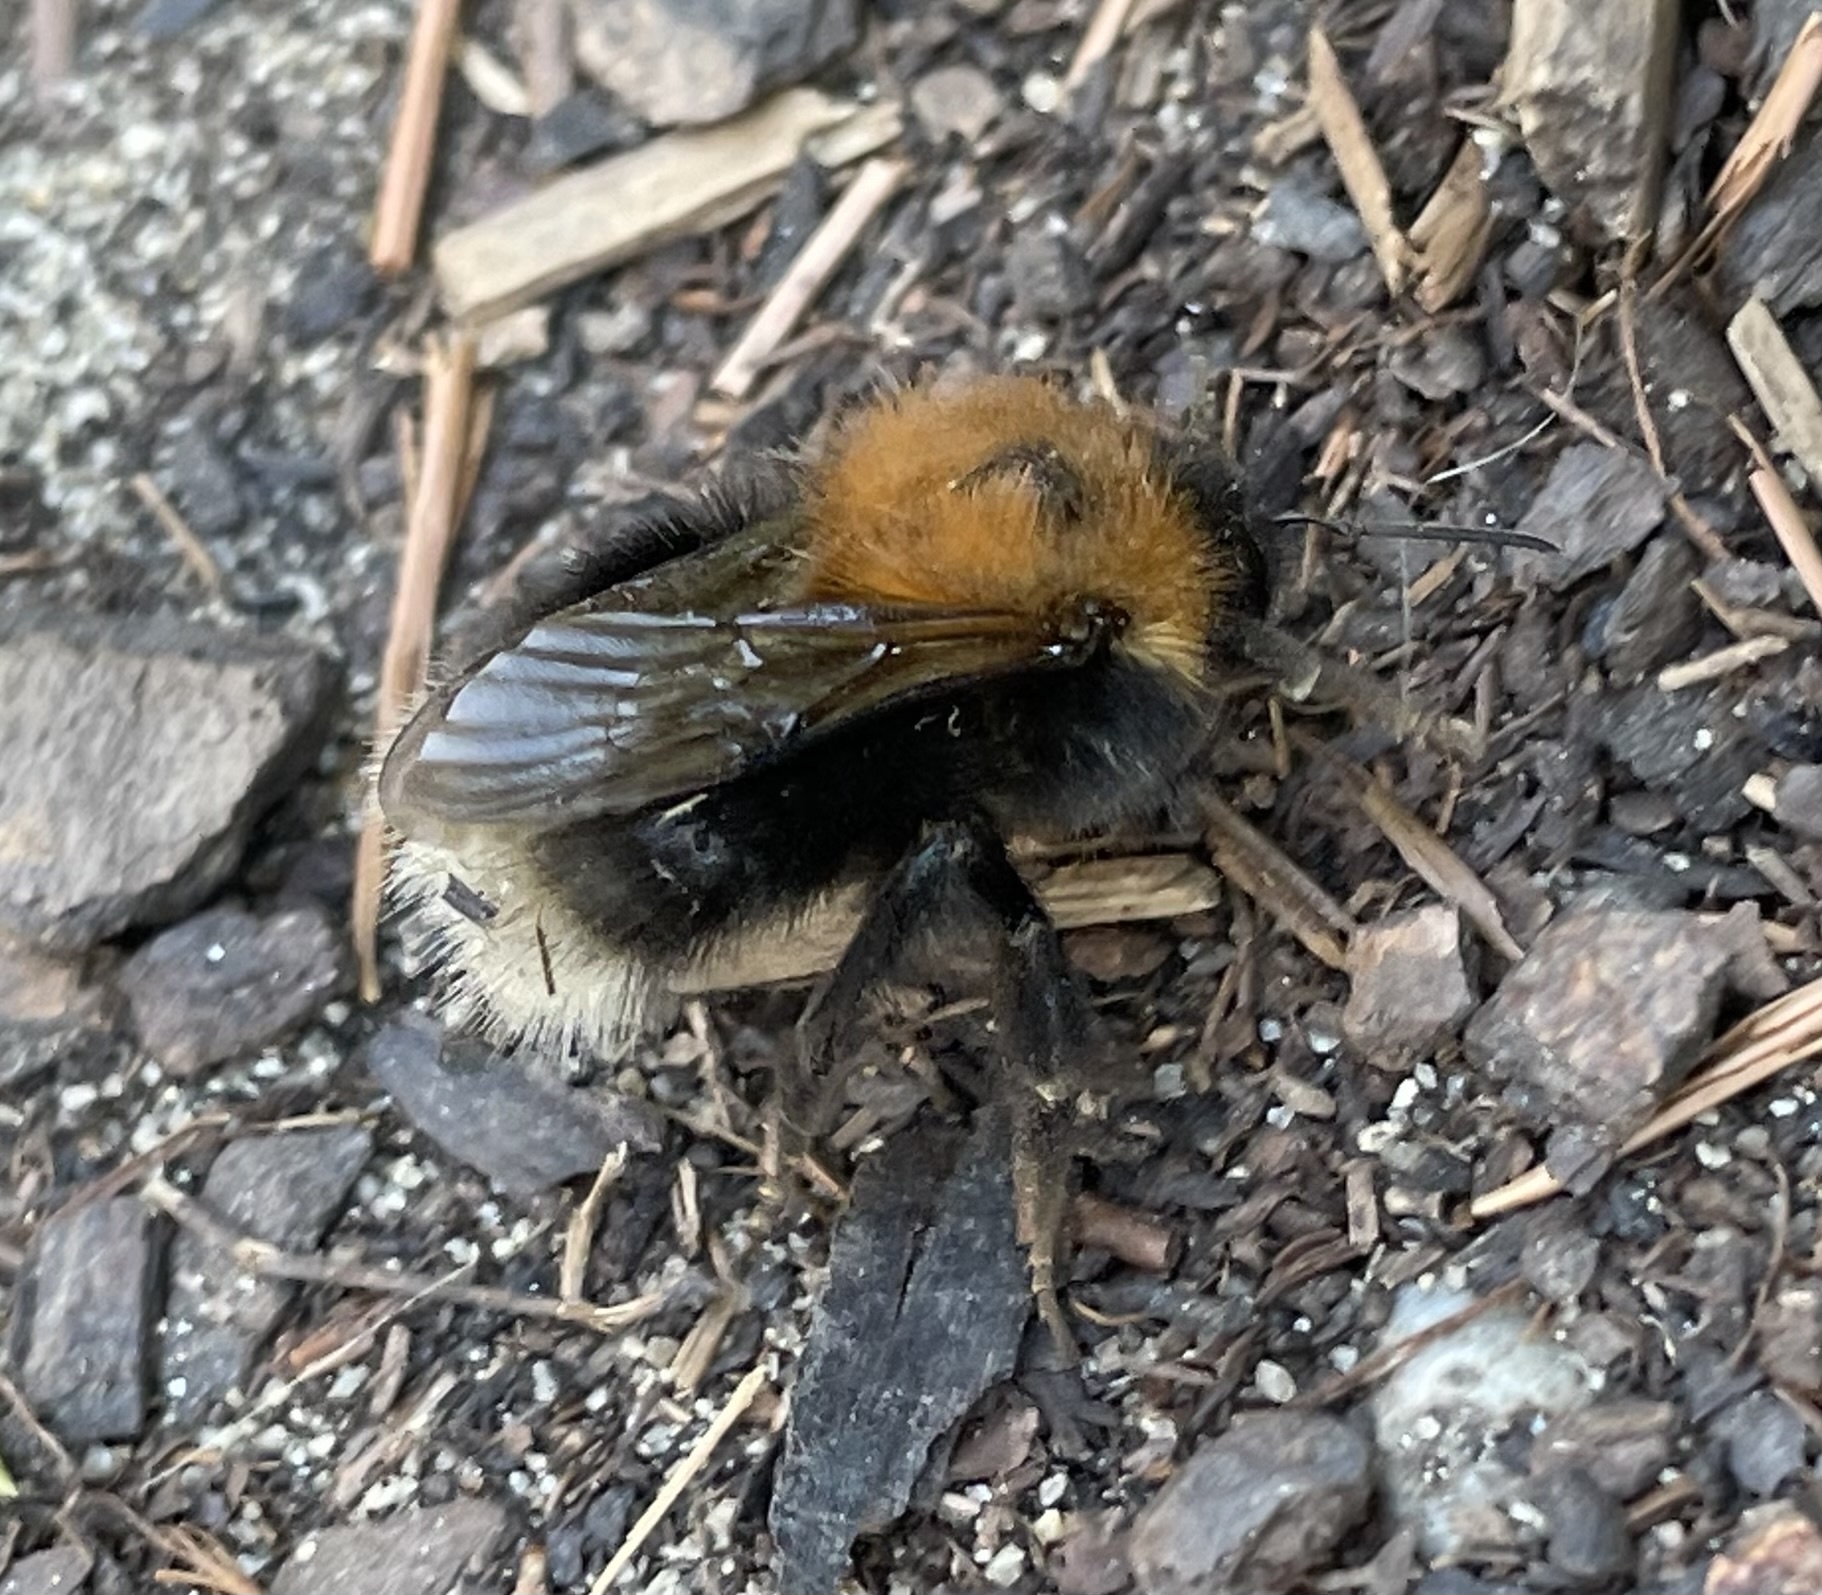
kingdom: Animalia
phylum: Arthropoda
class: Insecta
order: Hymenoptera
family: Apidae
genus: Bombus
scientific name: Bombus hypnorum
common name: New garden bumblebee
